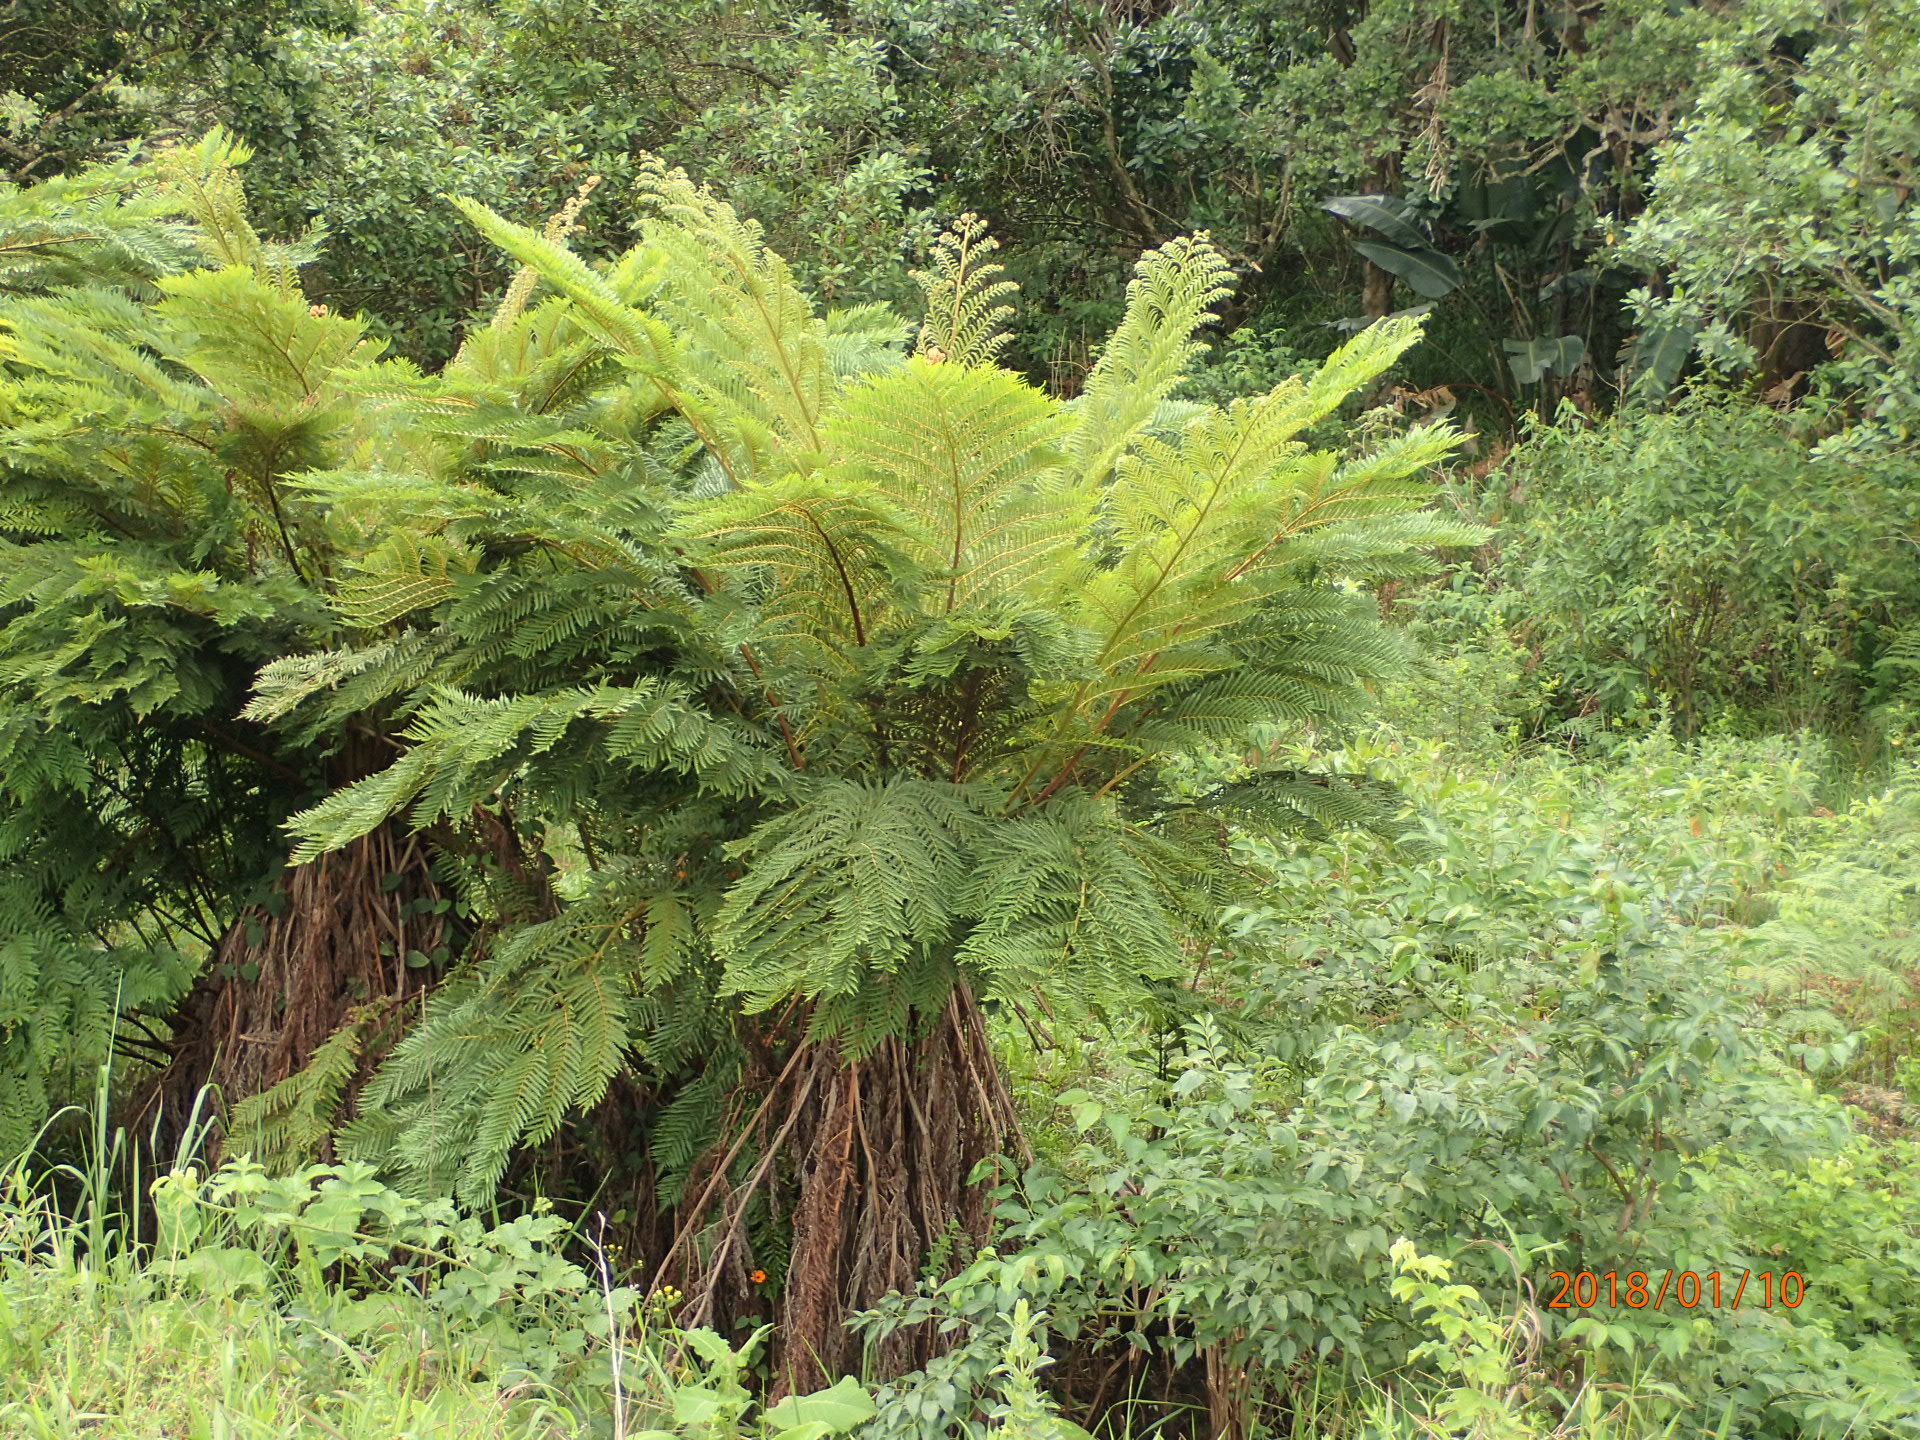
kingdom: Plantae
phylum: Tracheophyta
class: Polypodiopsida
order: Cyatheales
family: Cyatheaceae
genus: Alsophila
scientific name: Alsophila dregei
